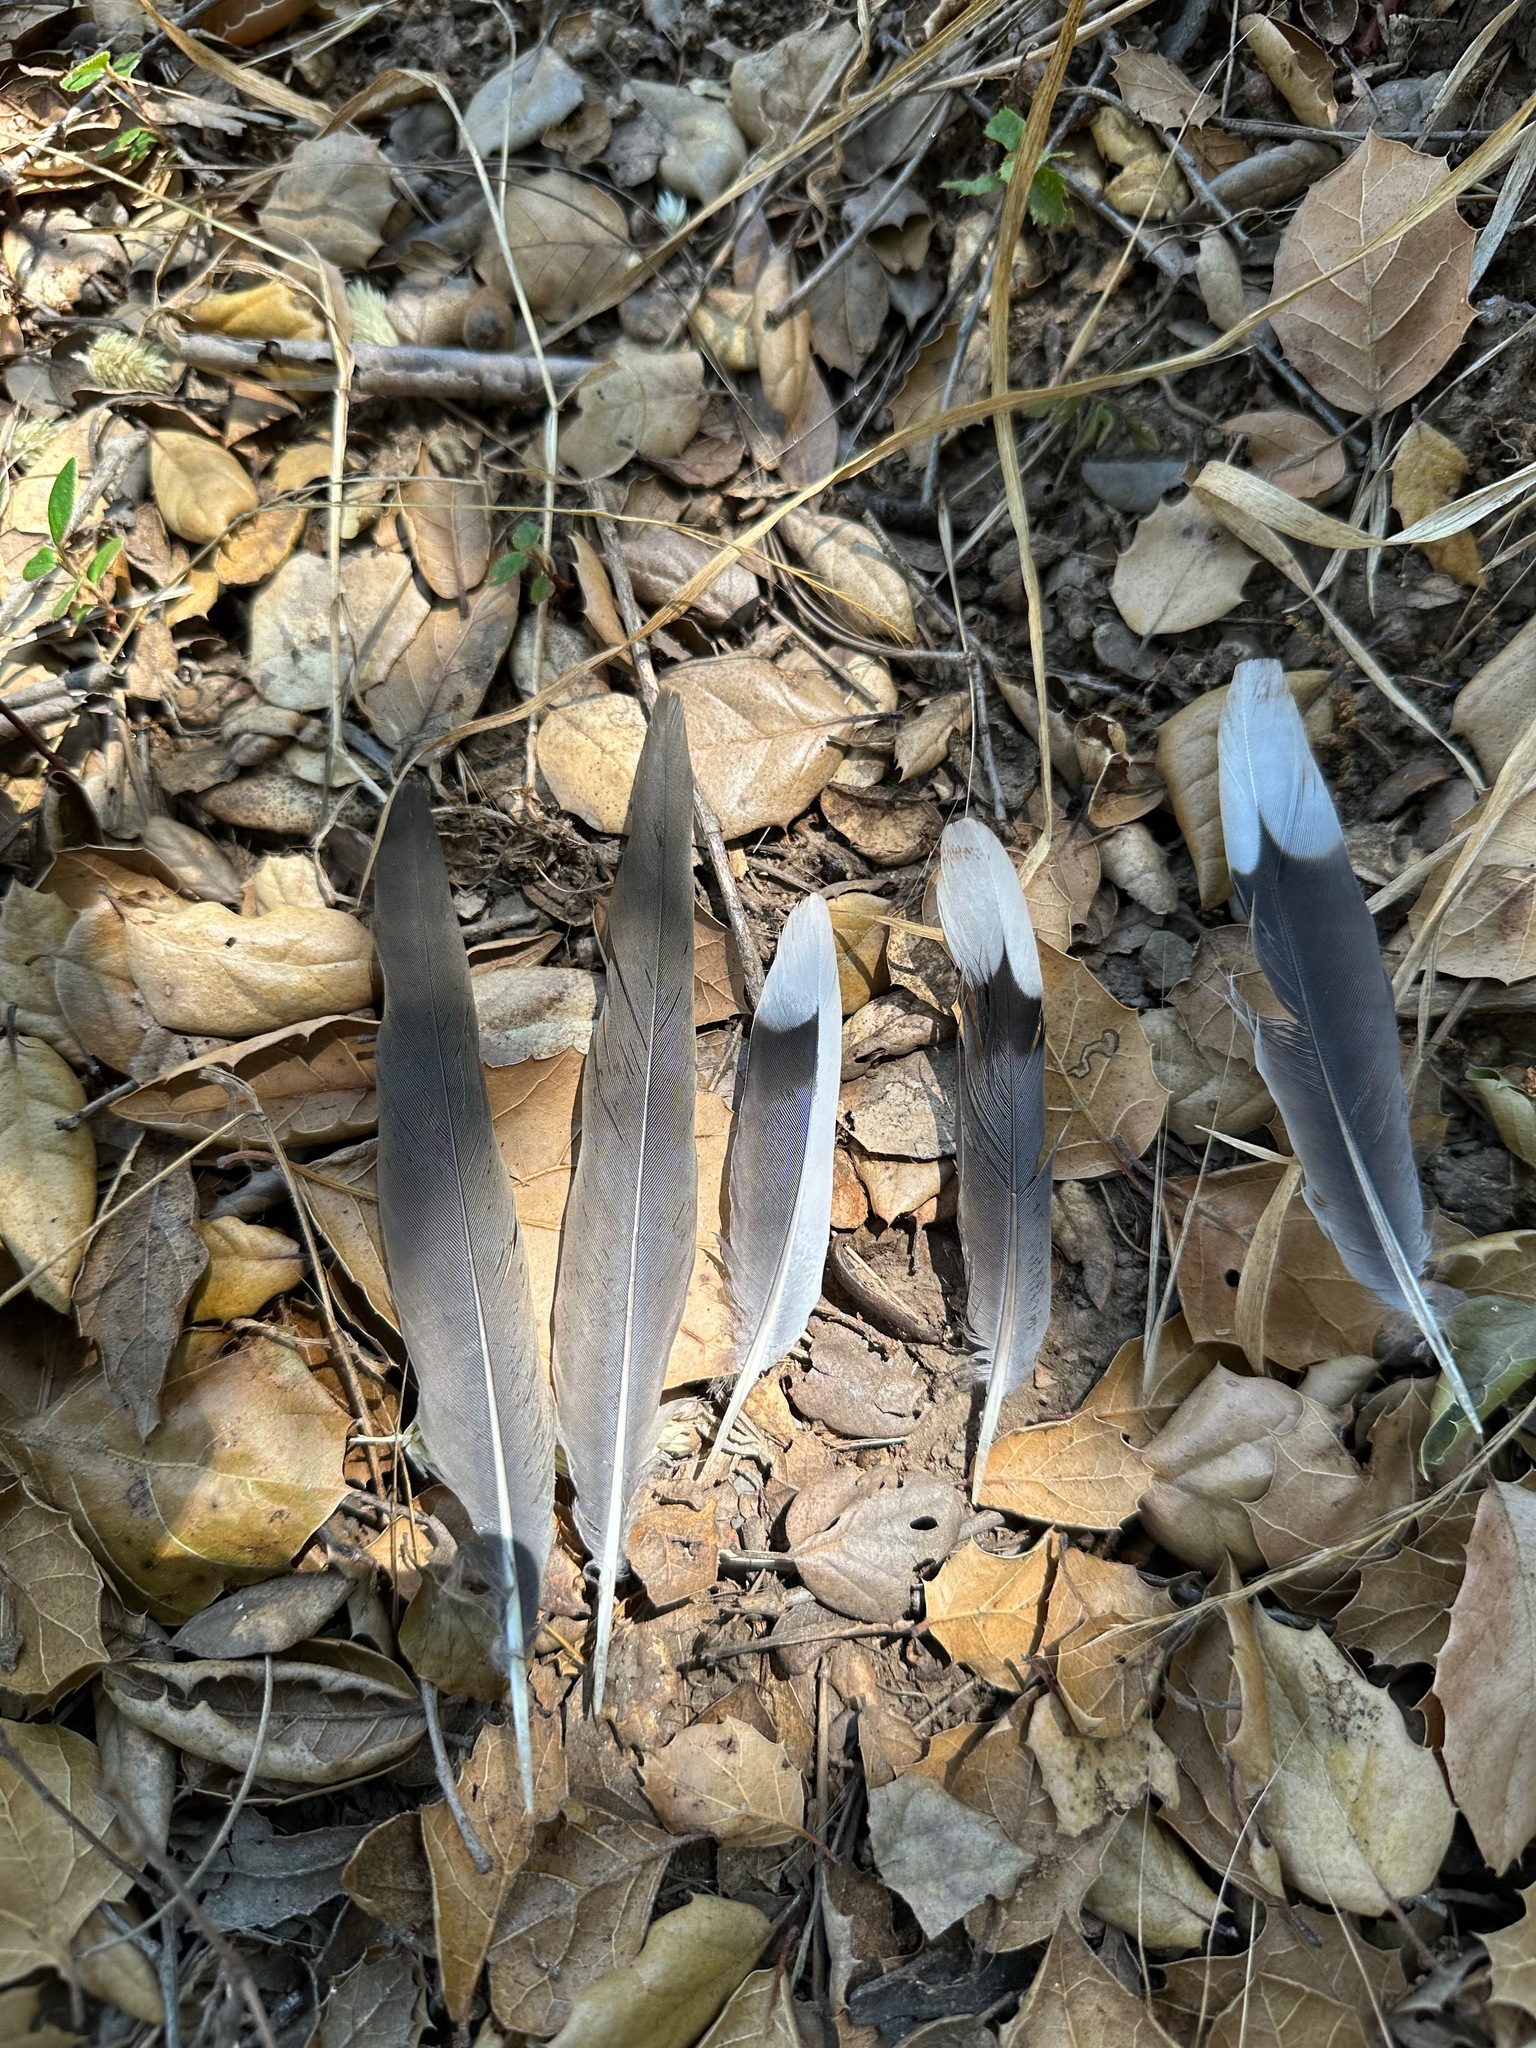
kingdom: Animalia
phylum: Chordata
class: Aves
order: Columbiformes
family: Columbidae
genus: Zenaida
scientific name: Zenaida macroura
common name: Mourning dove
